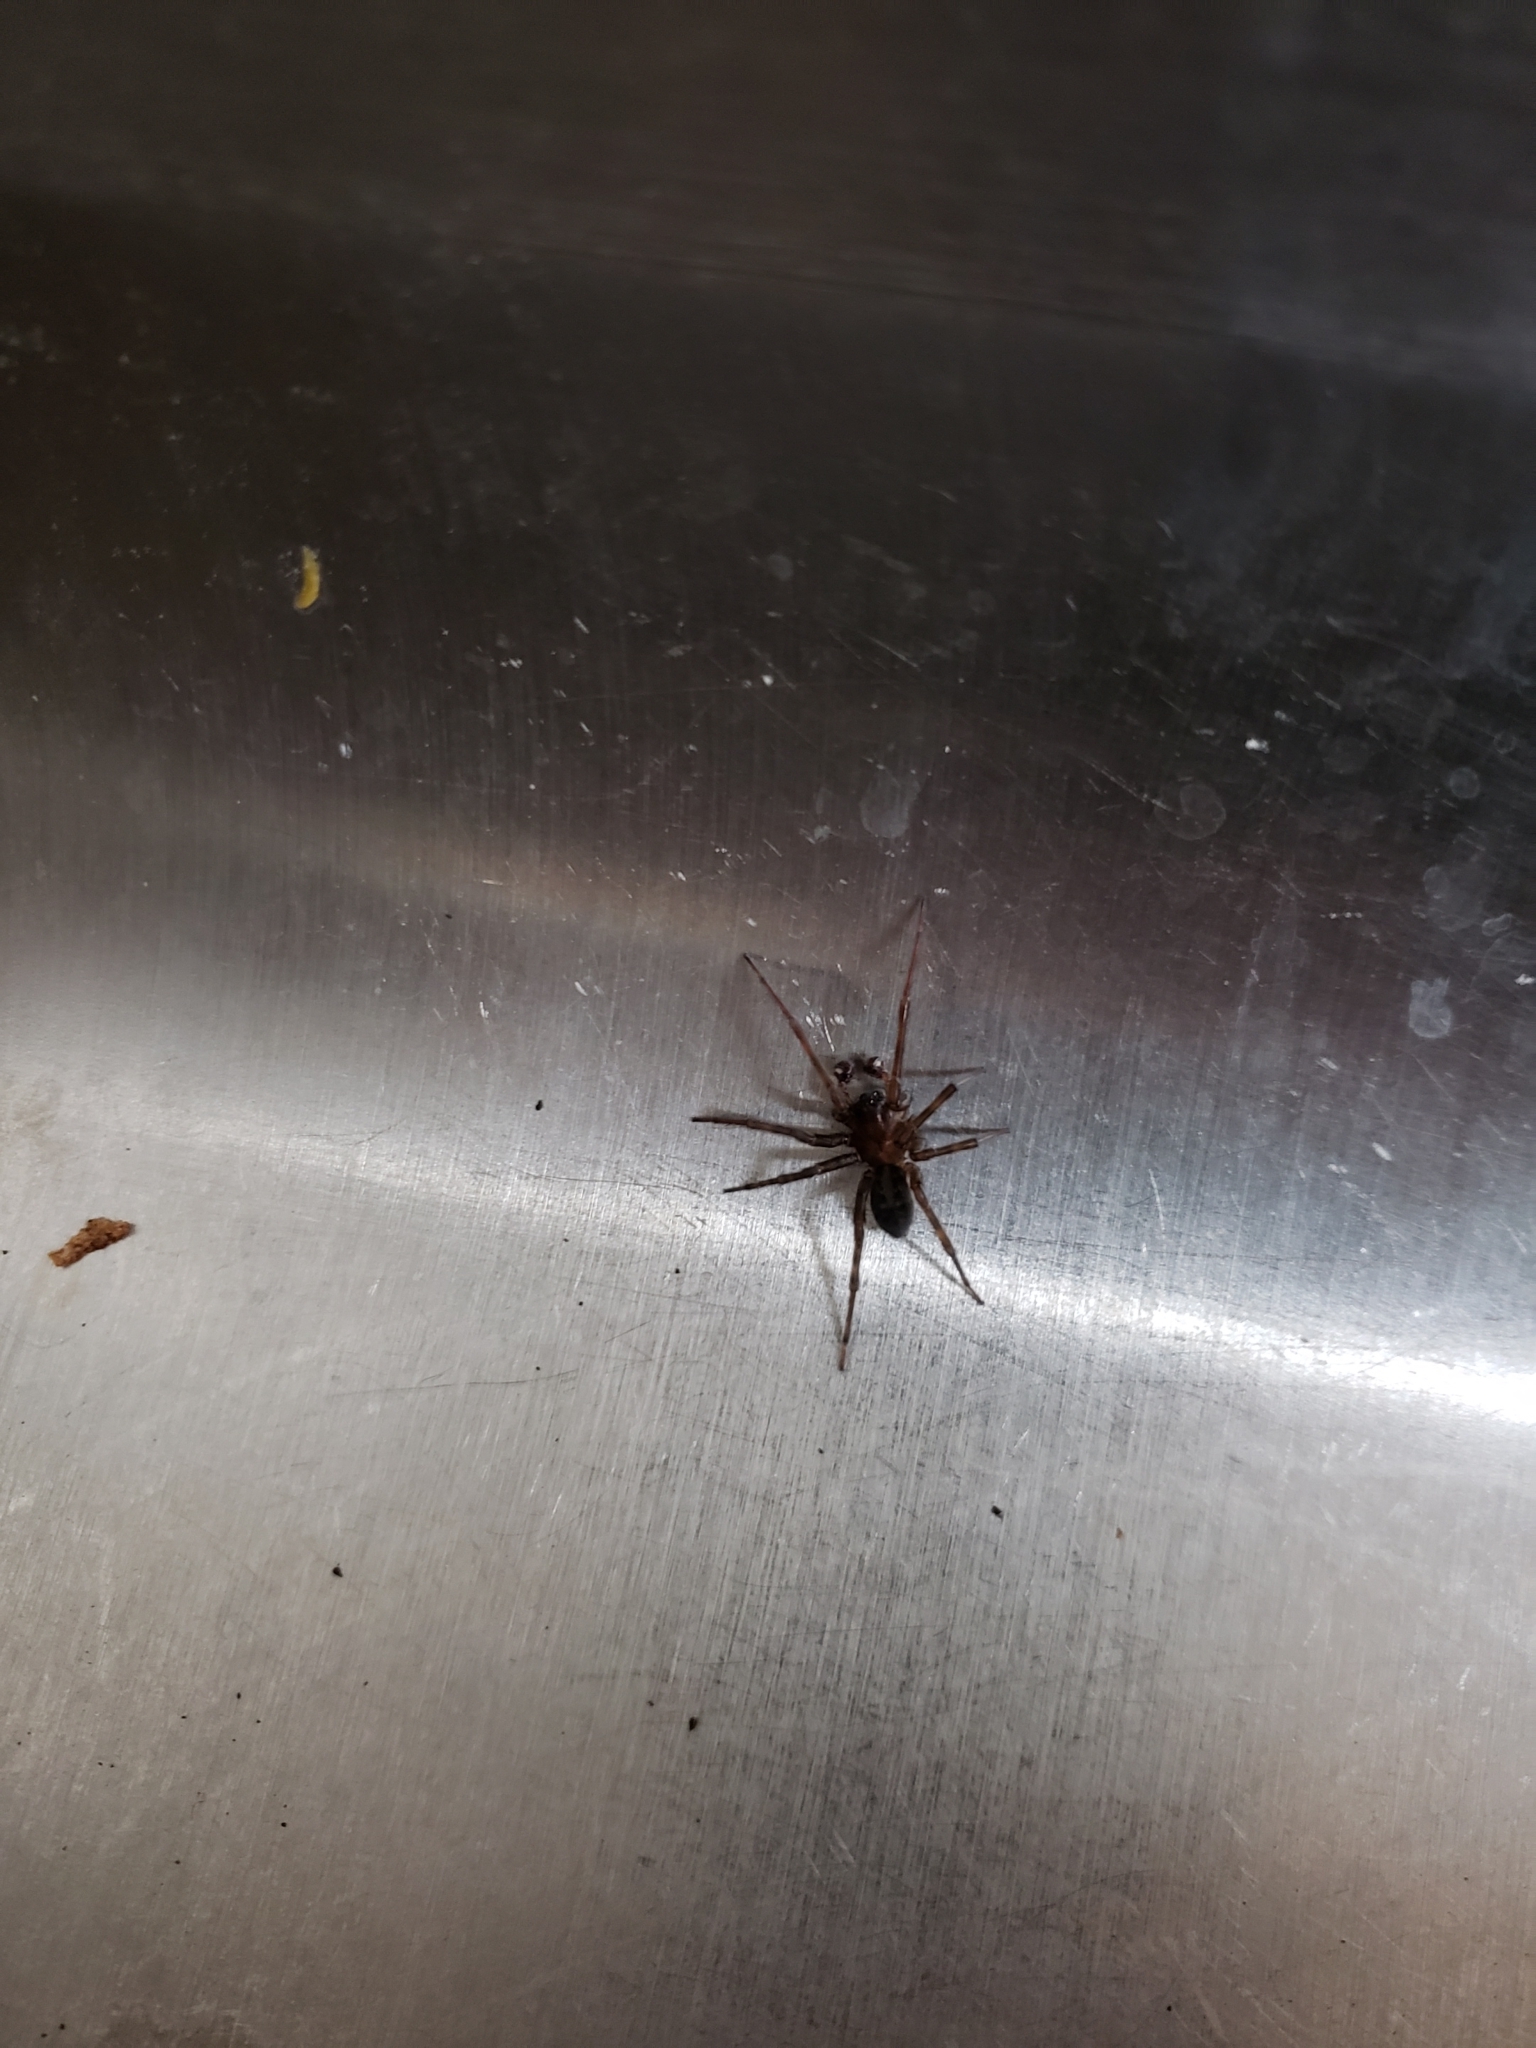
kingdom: Animalia
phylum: Arthropoda
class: Arachnida
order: Araneae
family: Amaurobiidae
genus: Amaurobius
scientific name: Amaurobius ferox
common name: Black laceweaver
